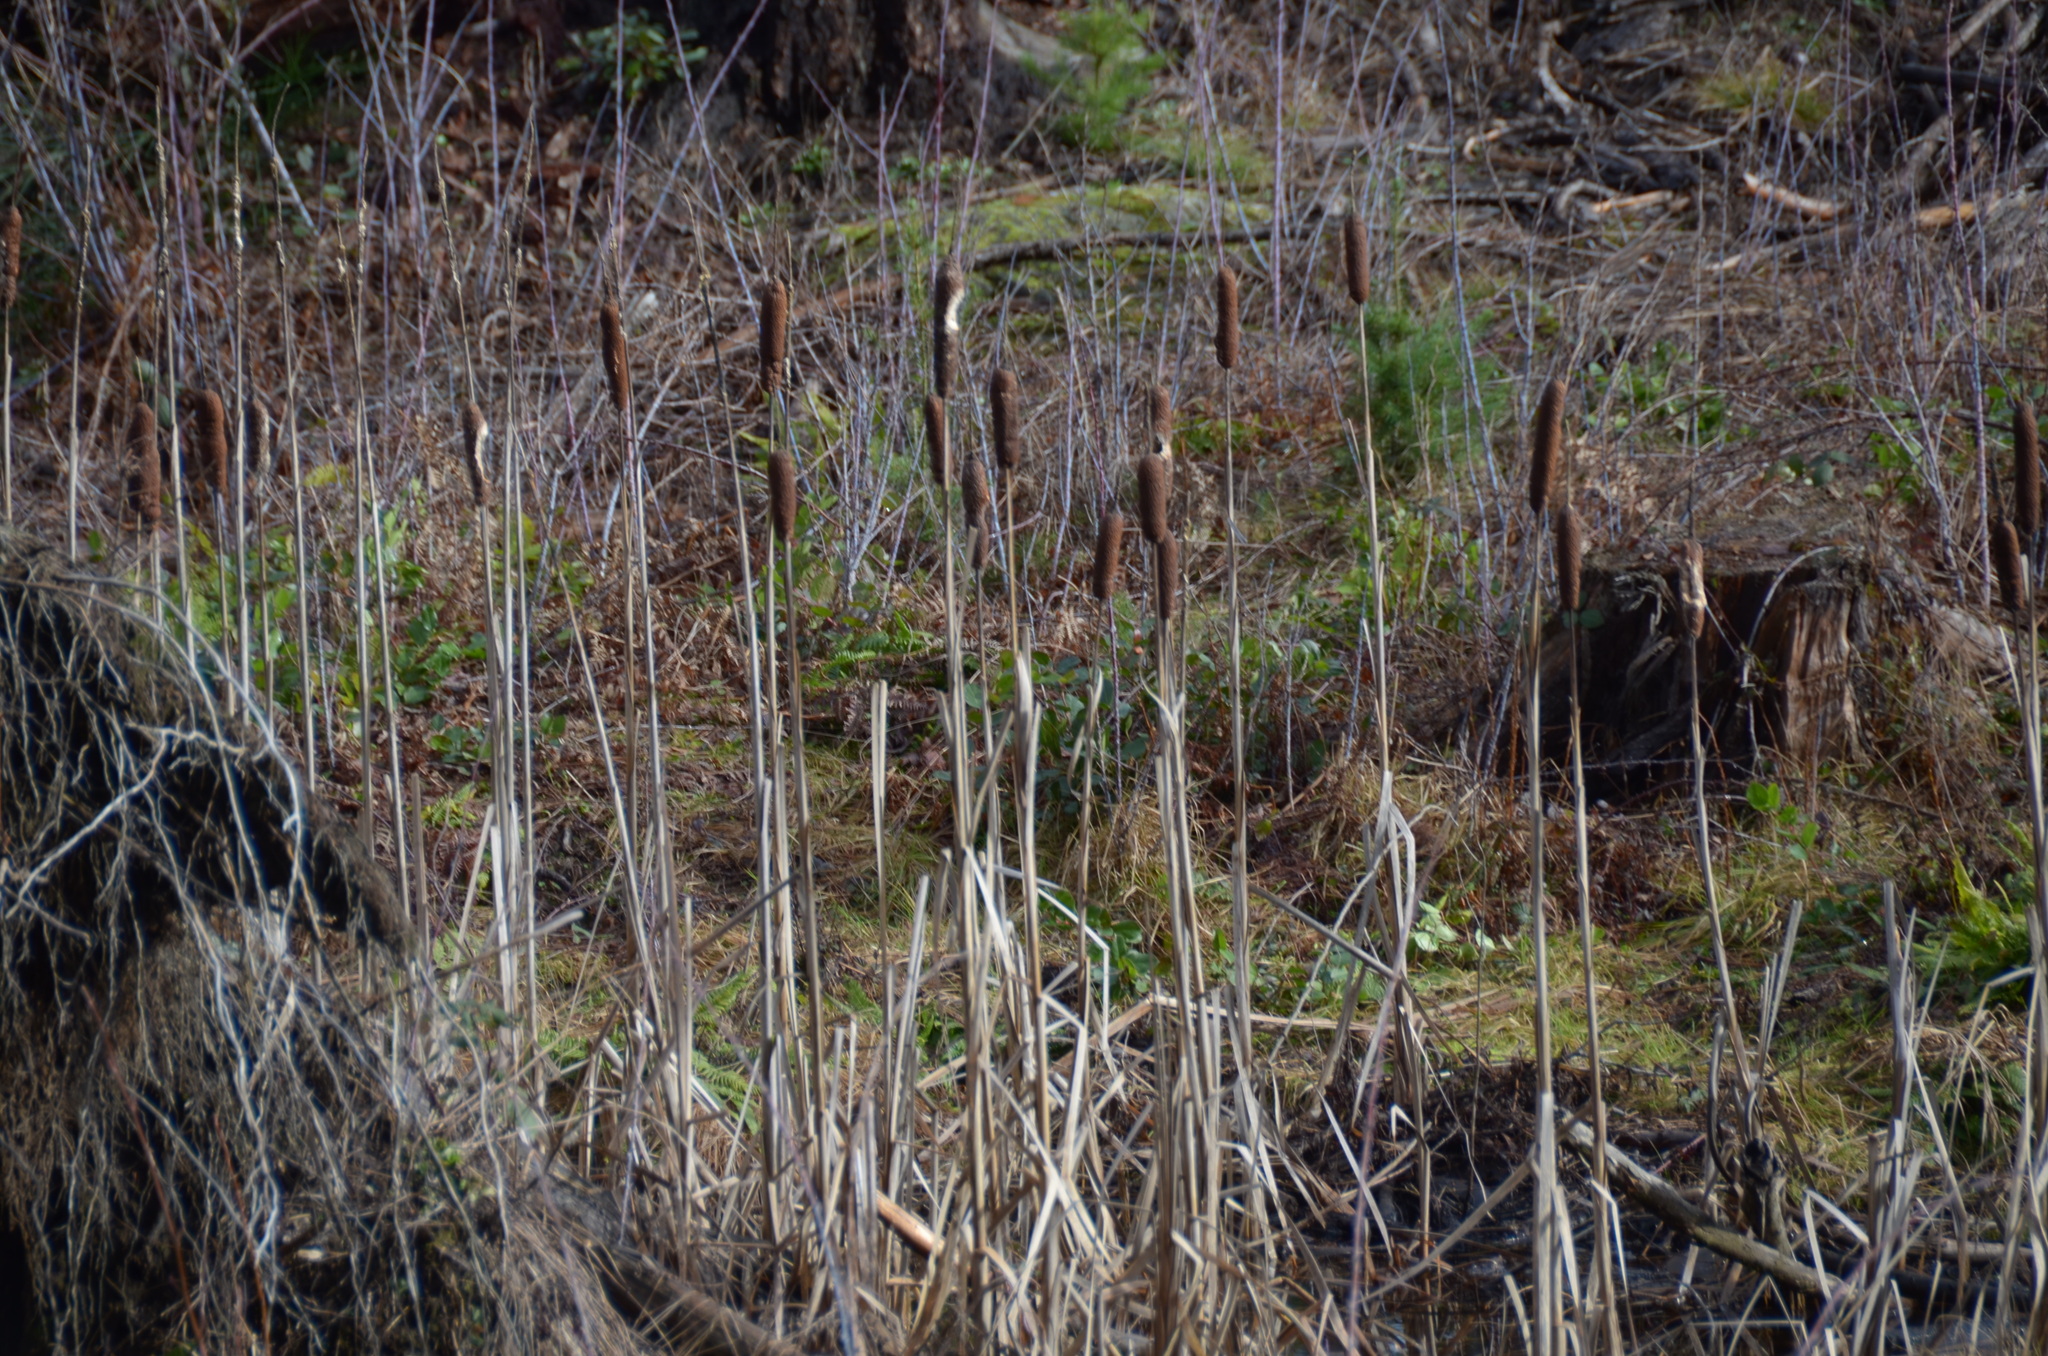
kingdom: Plantae
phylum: Tracheophyta
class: Liliopsida
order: Poales
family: Typhaceae
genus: Typha
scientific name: Typha latifolia
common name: Broadleaf cattail
